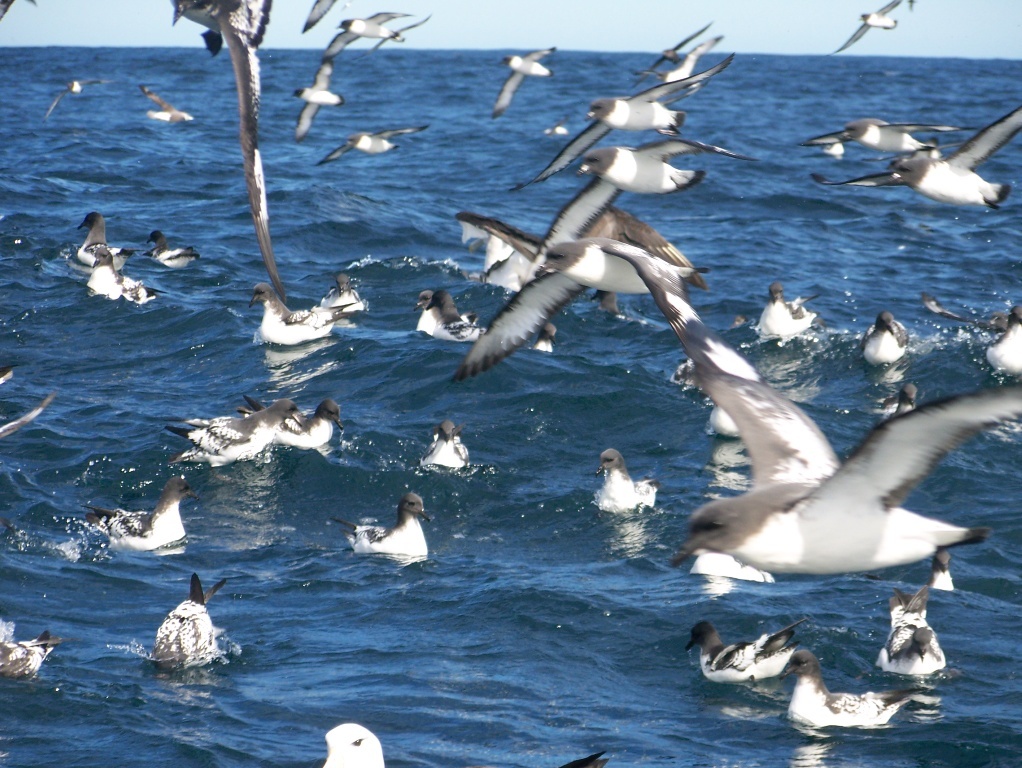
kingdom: Animalia
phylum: Chordata
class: Aves
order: Procellariiformes
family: Procellariidae
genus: Daption
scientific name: Daption capense
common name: Cape petrel
